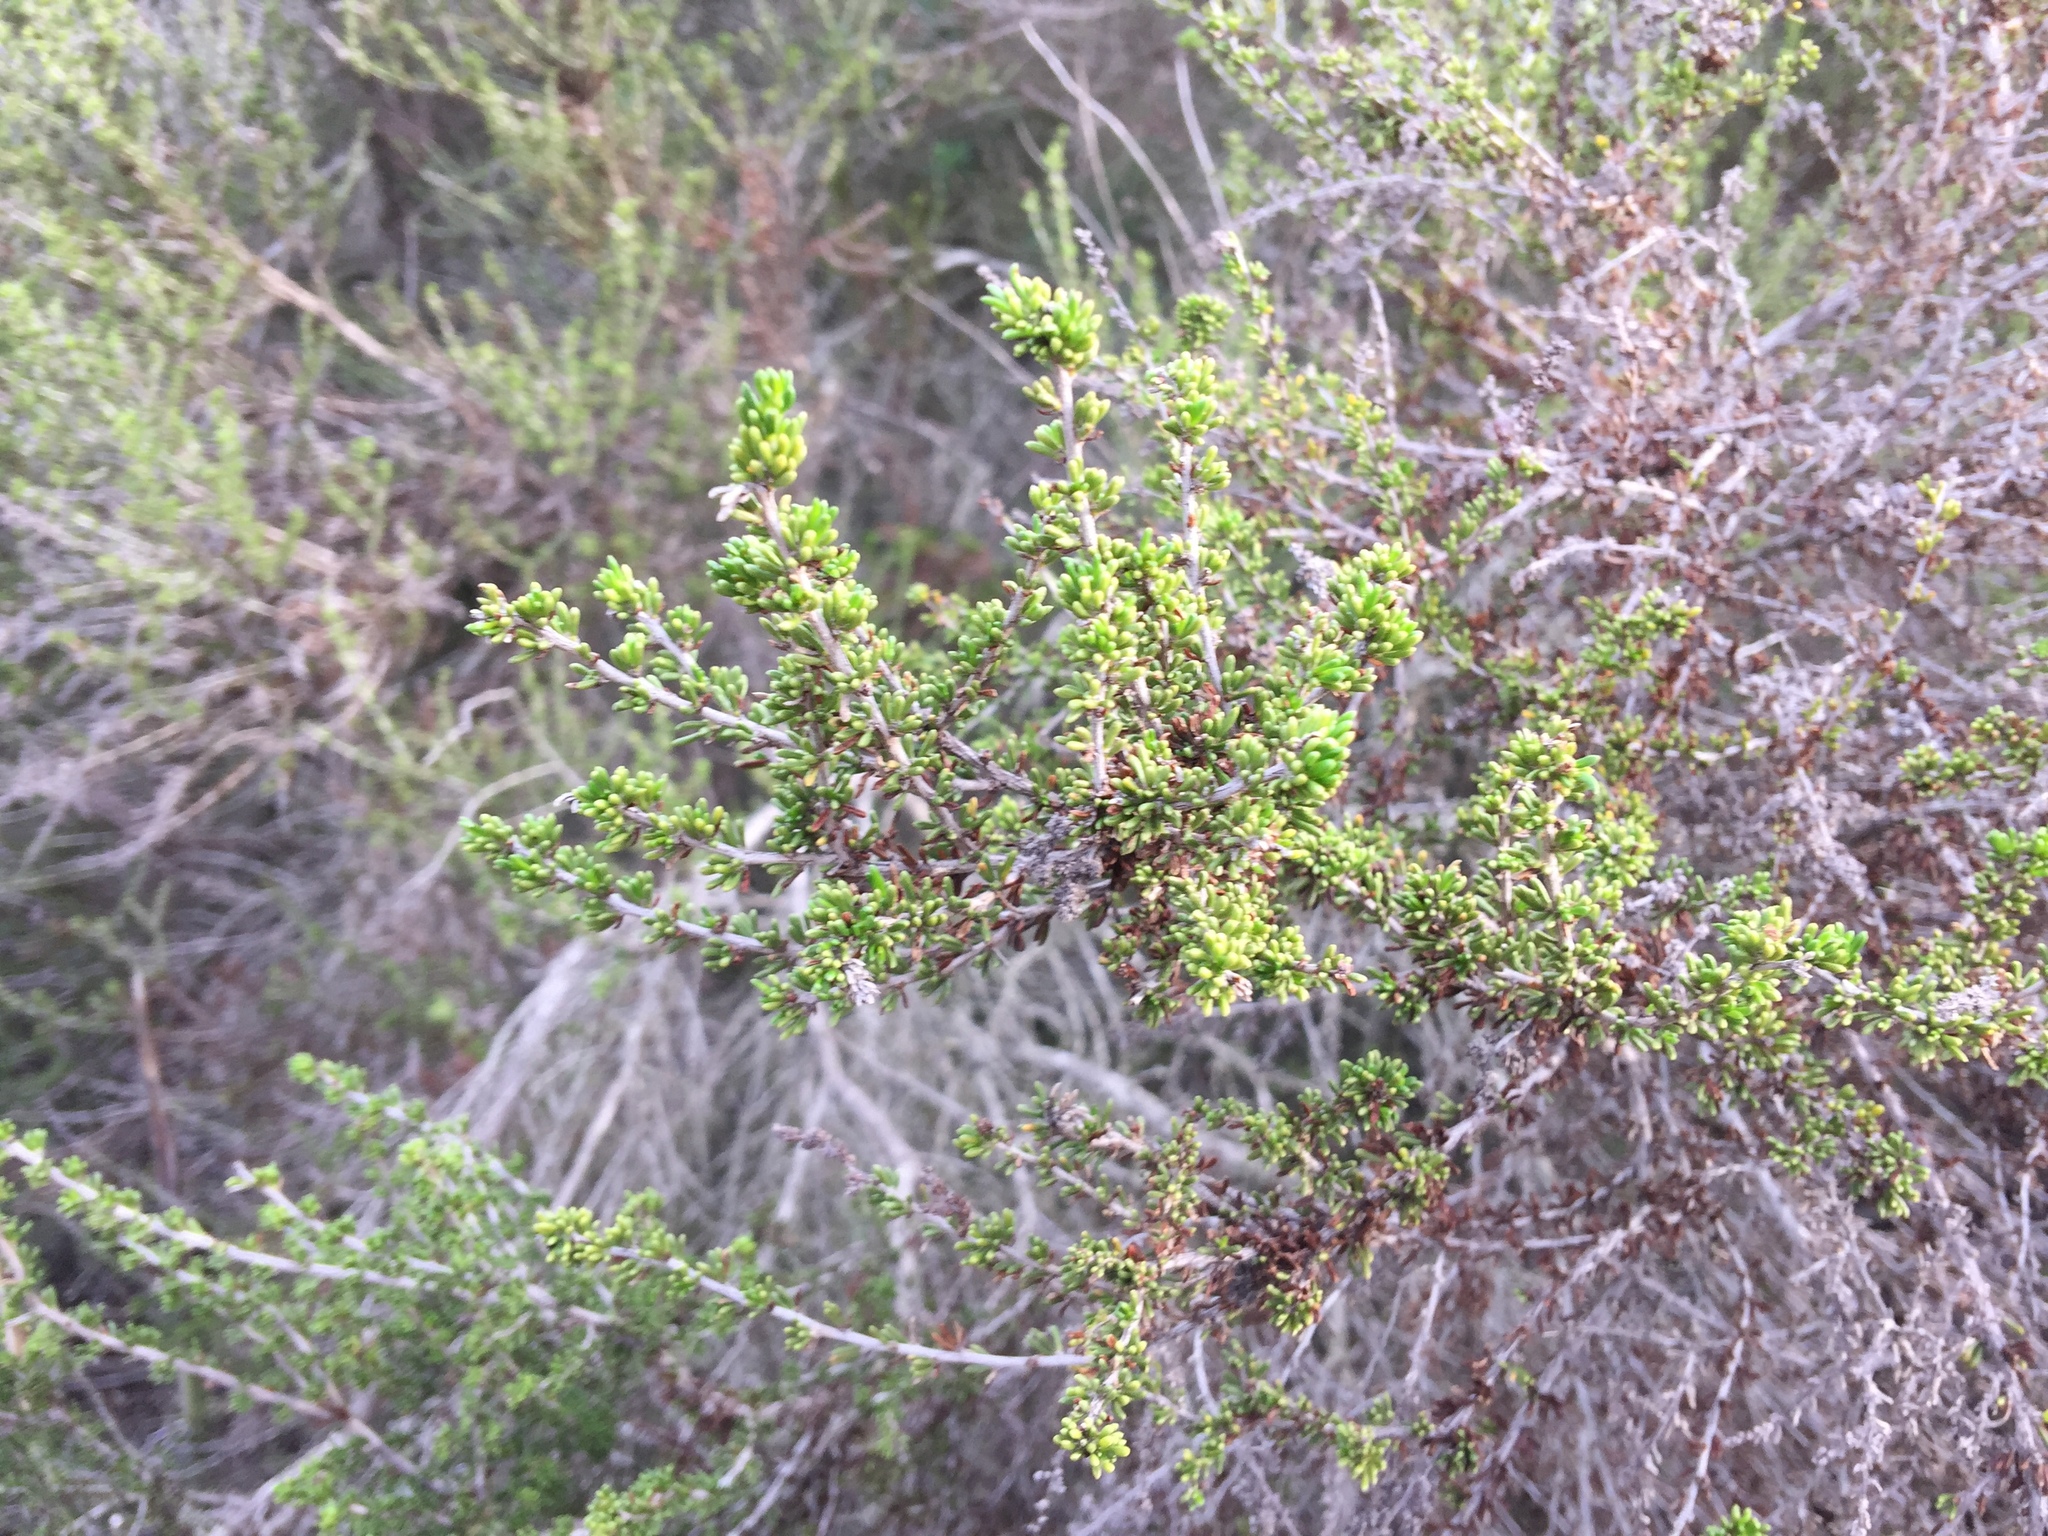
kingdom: Plantae
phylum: Tracheophyta
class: Magnoliopsida
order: Rosales
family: Rosaceae
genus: Adenostoma
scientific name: Adenostoma fasciculatum
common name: Chamise
